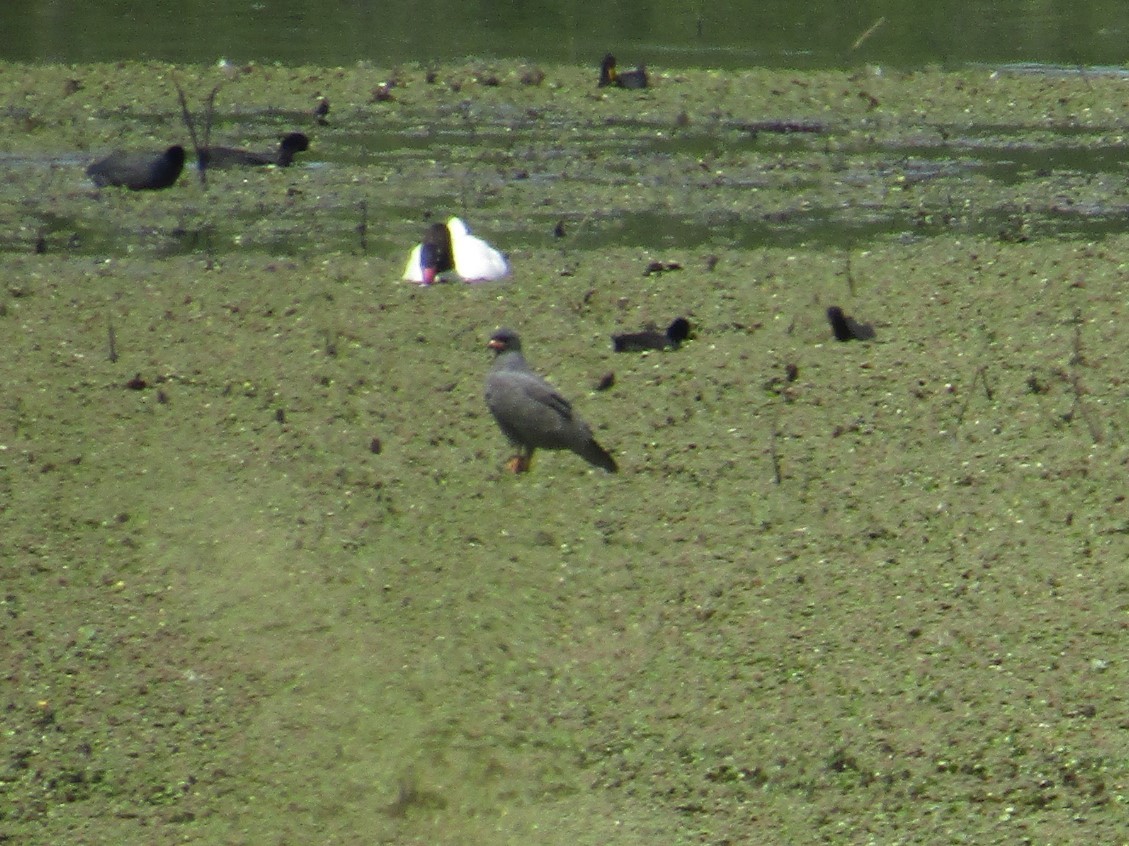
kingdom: Animalia
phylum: Chordata
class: Aves
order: Accipitriformes
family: Accipitridae
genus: Rostrhamus
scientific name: Rostrhamus sociabilis
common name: Snail kite
